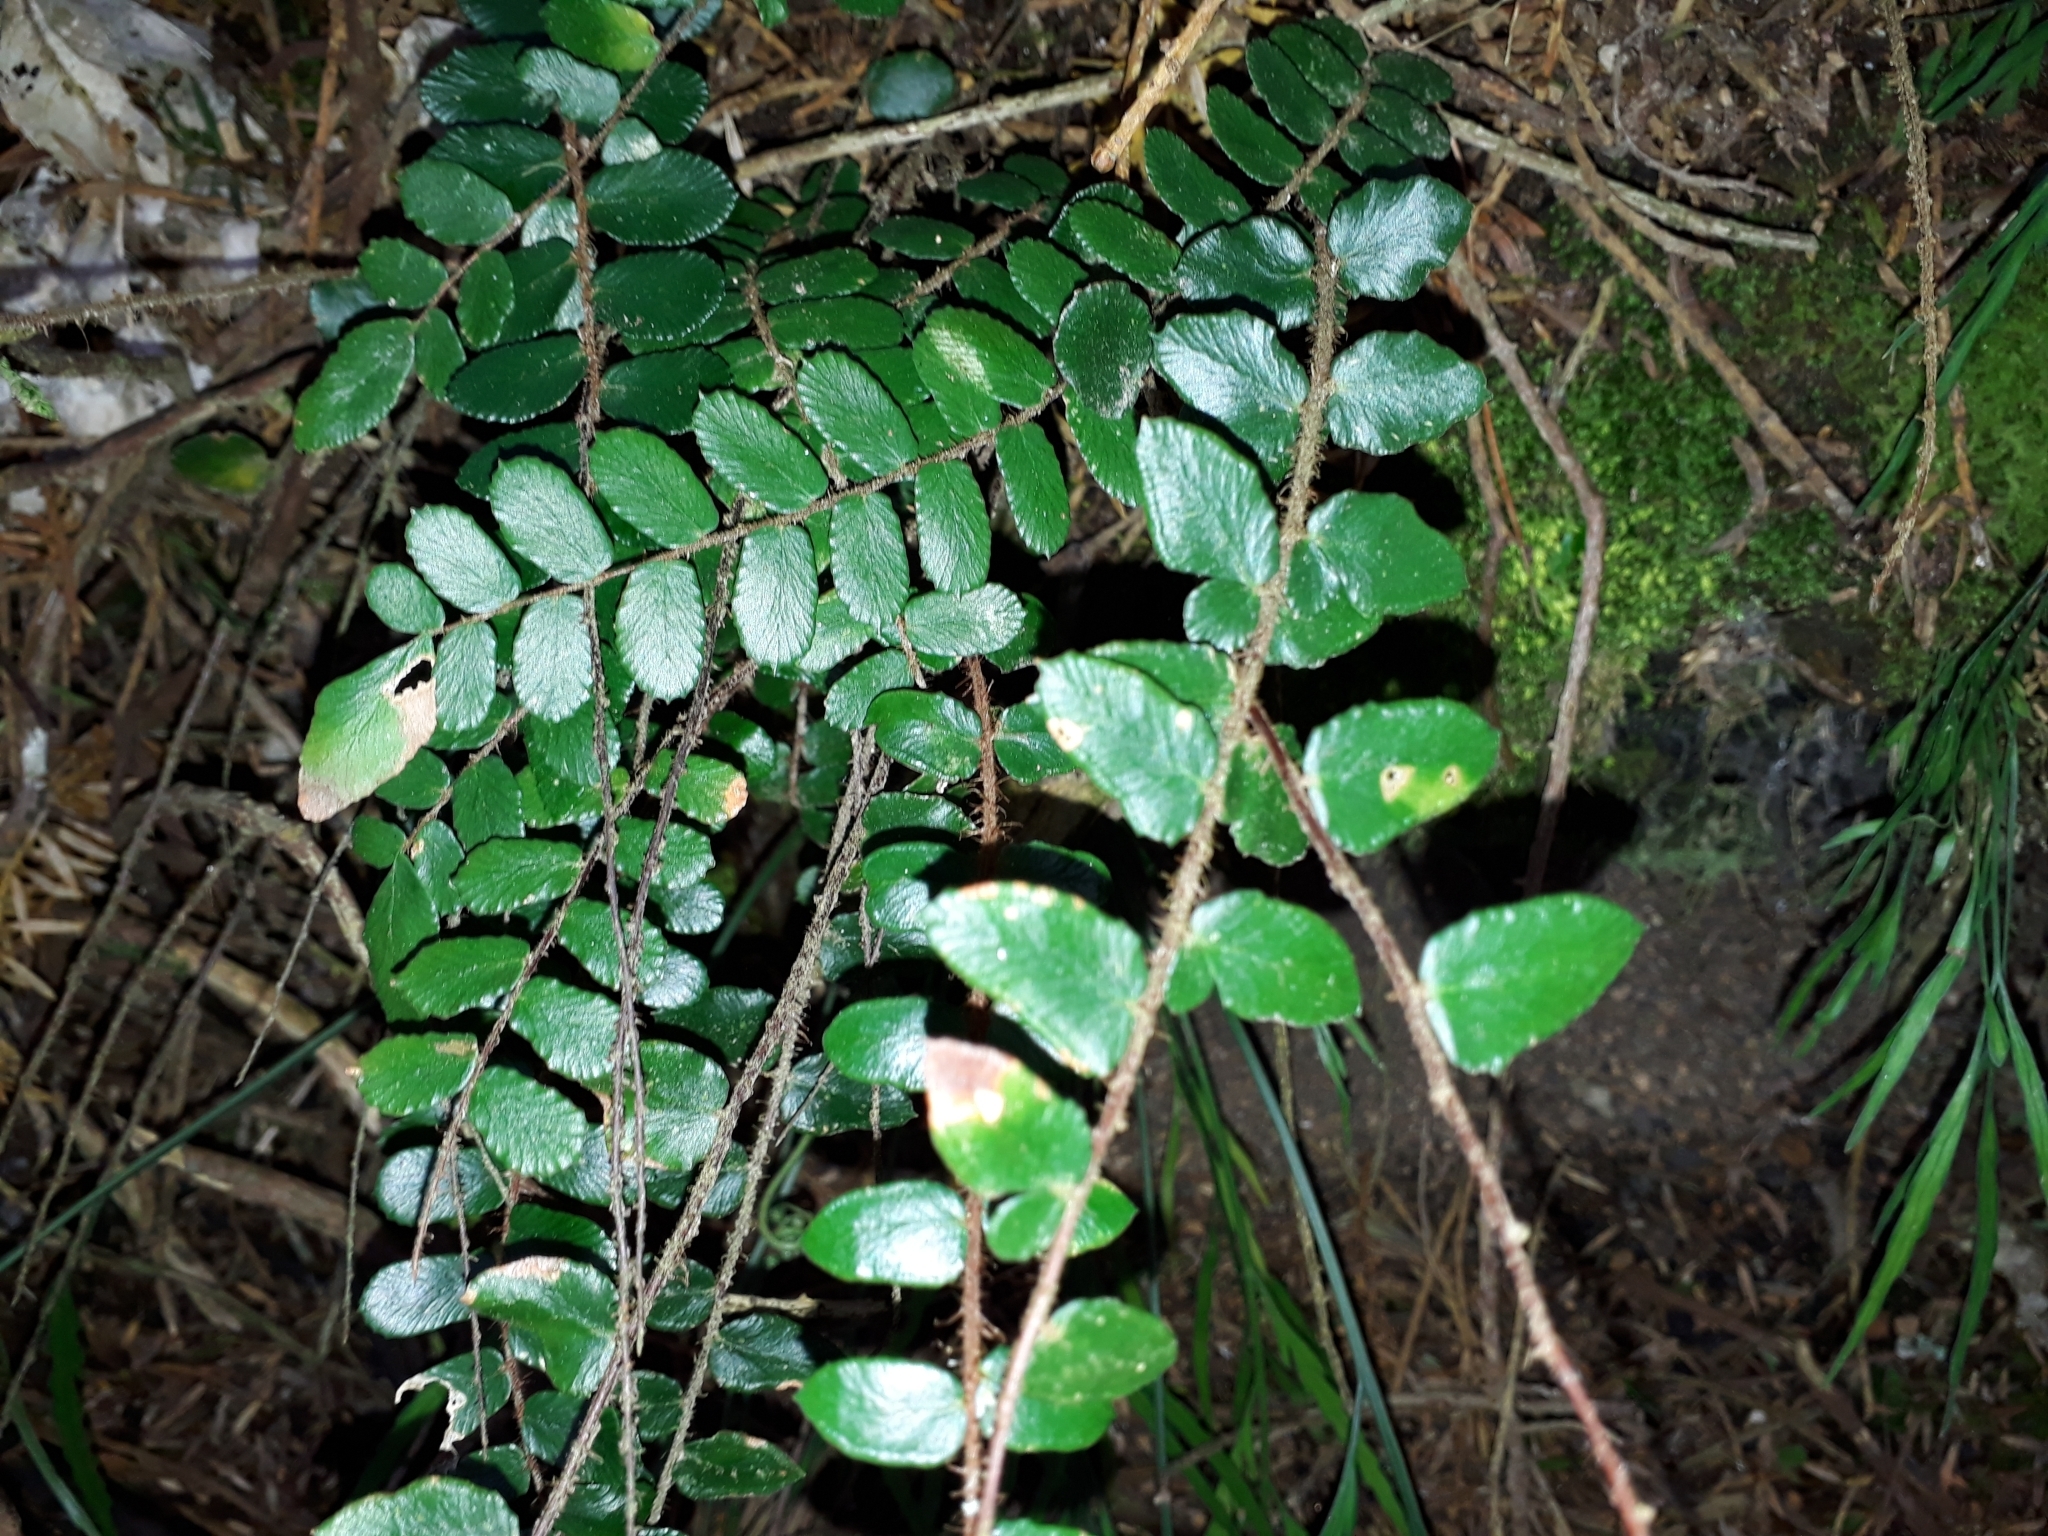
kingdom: Plantae
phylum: Tracheophyta
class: Polypodiopsida
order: Polypodiales
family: Pteridaceae
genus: Pellaea
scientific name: Pellaea rotundifolia
